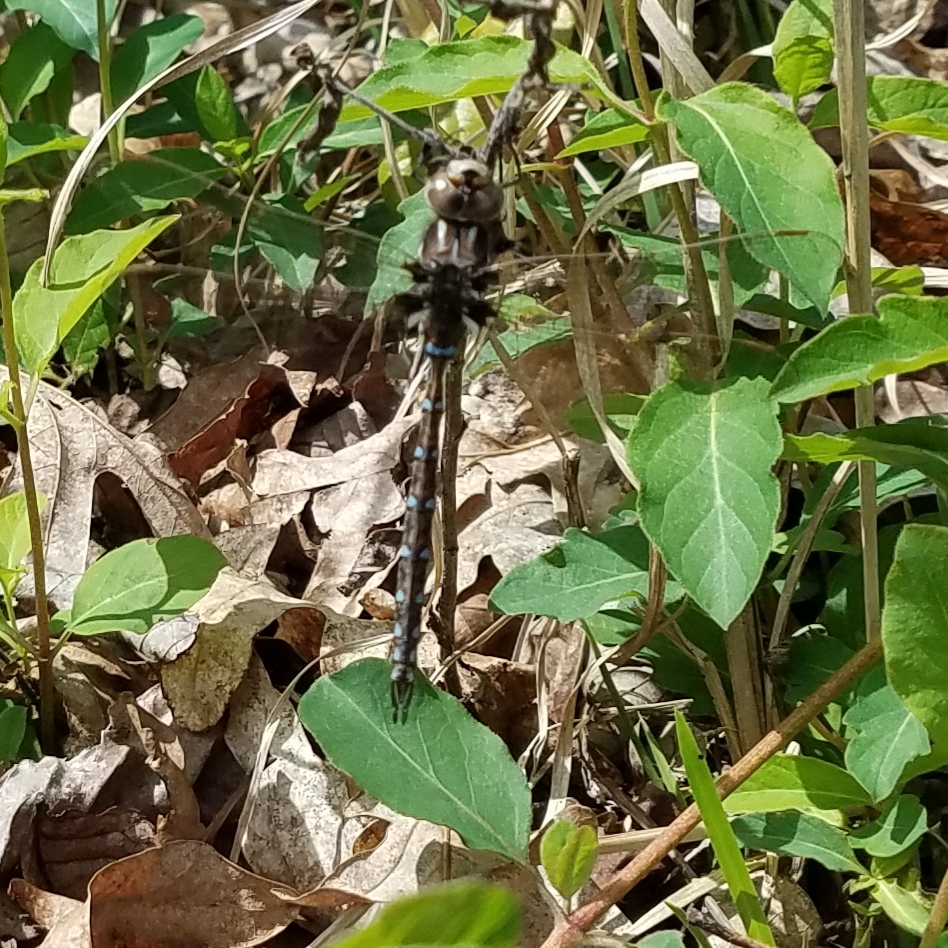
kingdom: Animalia
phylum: Arthropoda
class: Insecta
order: Odonata
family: Aeshnidae
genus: Basiaeschna
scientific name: Basiaeschna janata
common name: Springtime darner
